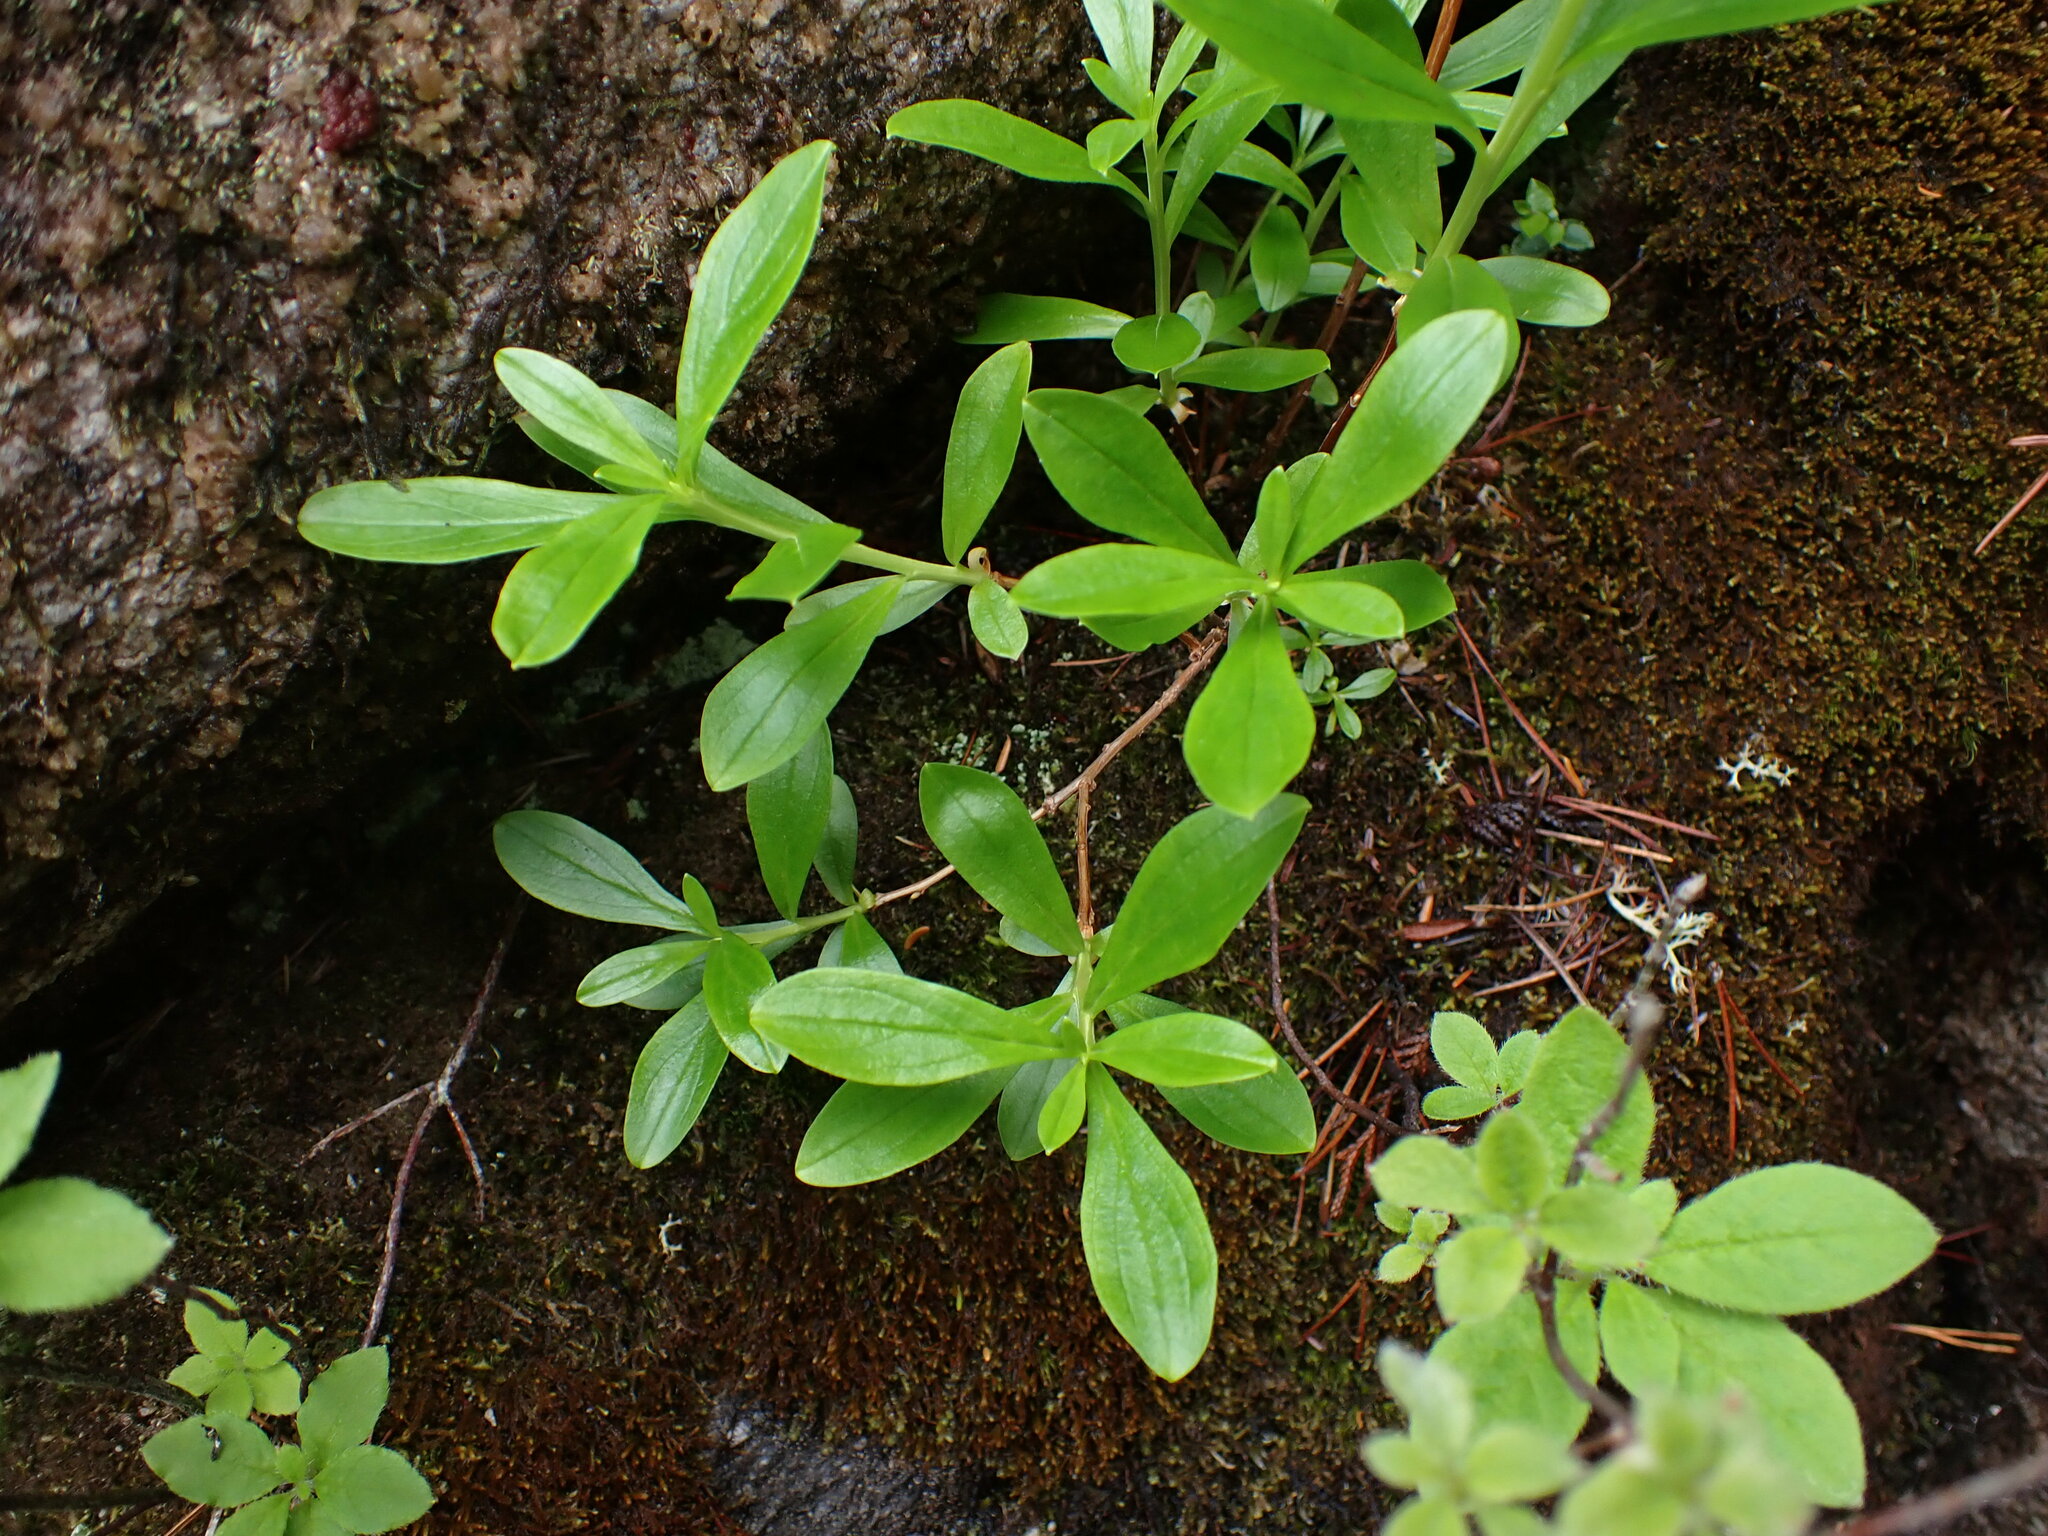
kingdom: Plantae
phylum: Tracheophyta
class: Magnoliopsida
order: Ericales
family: Ericaceae
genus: Elliottia
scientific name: Elliottia pyroliflora
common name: Copperbush
